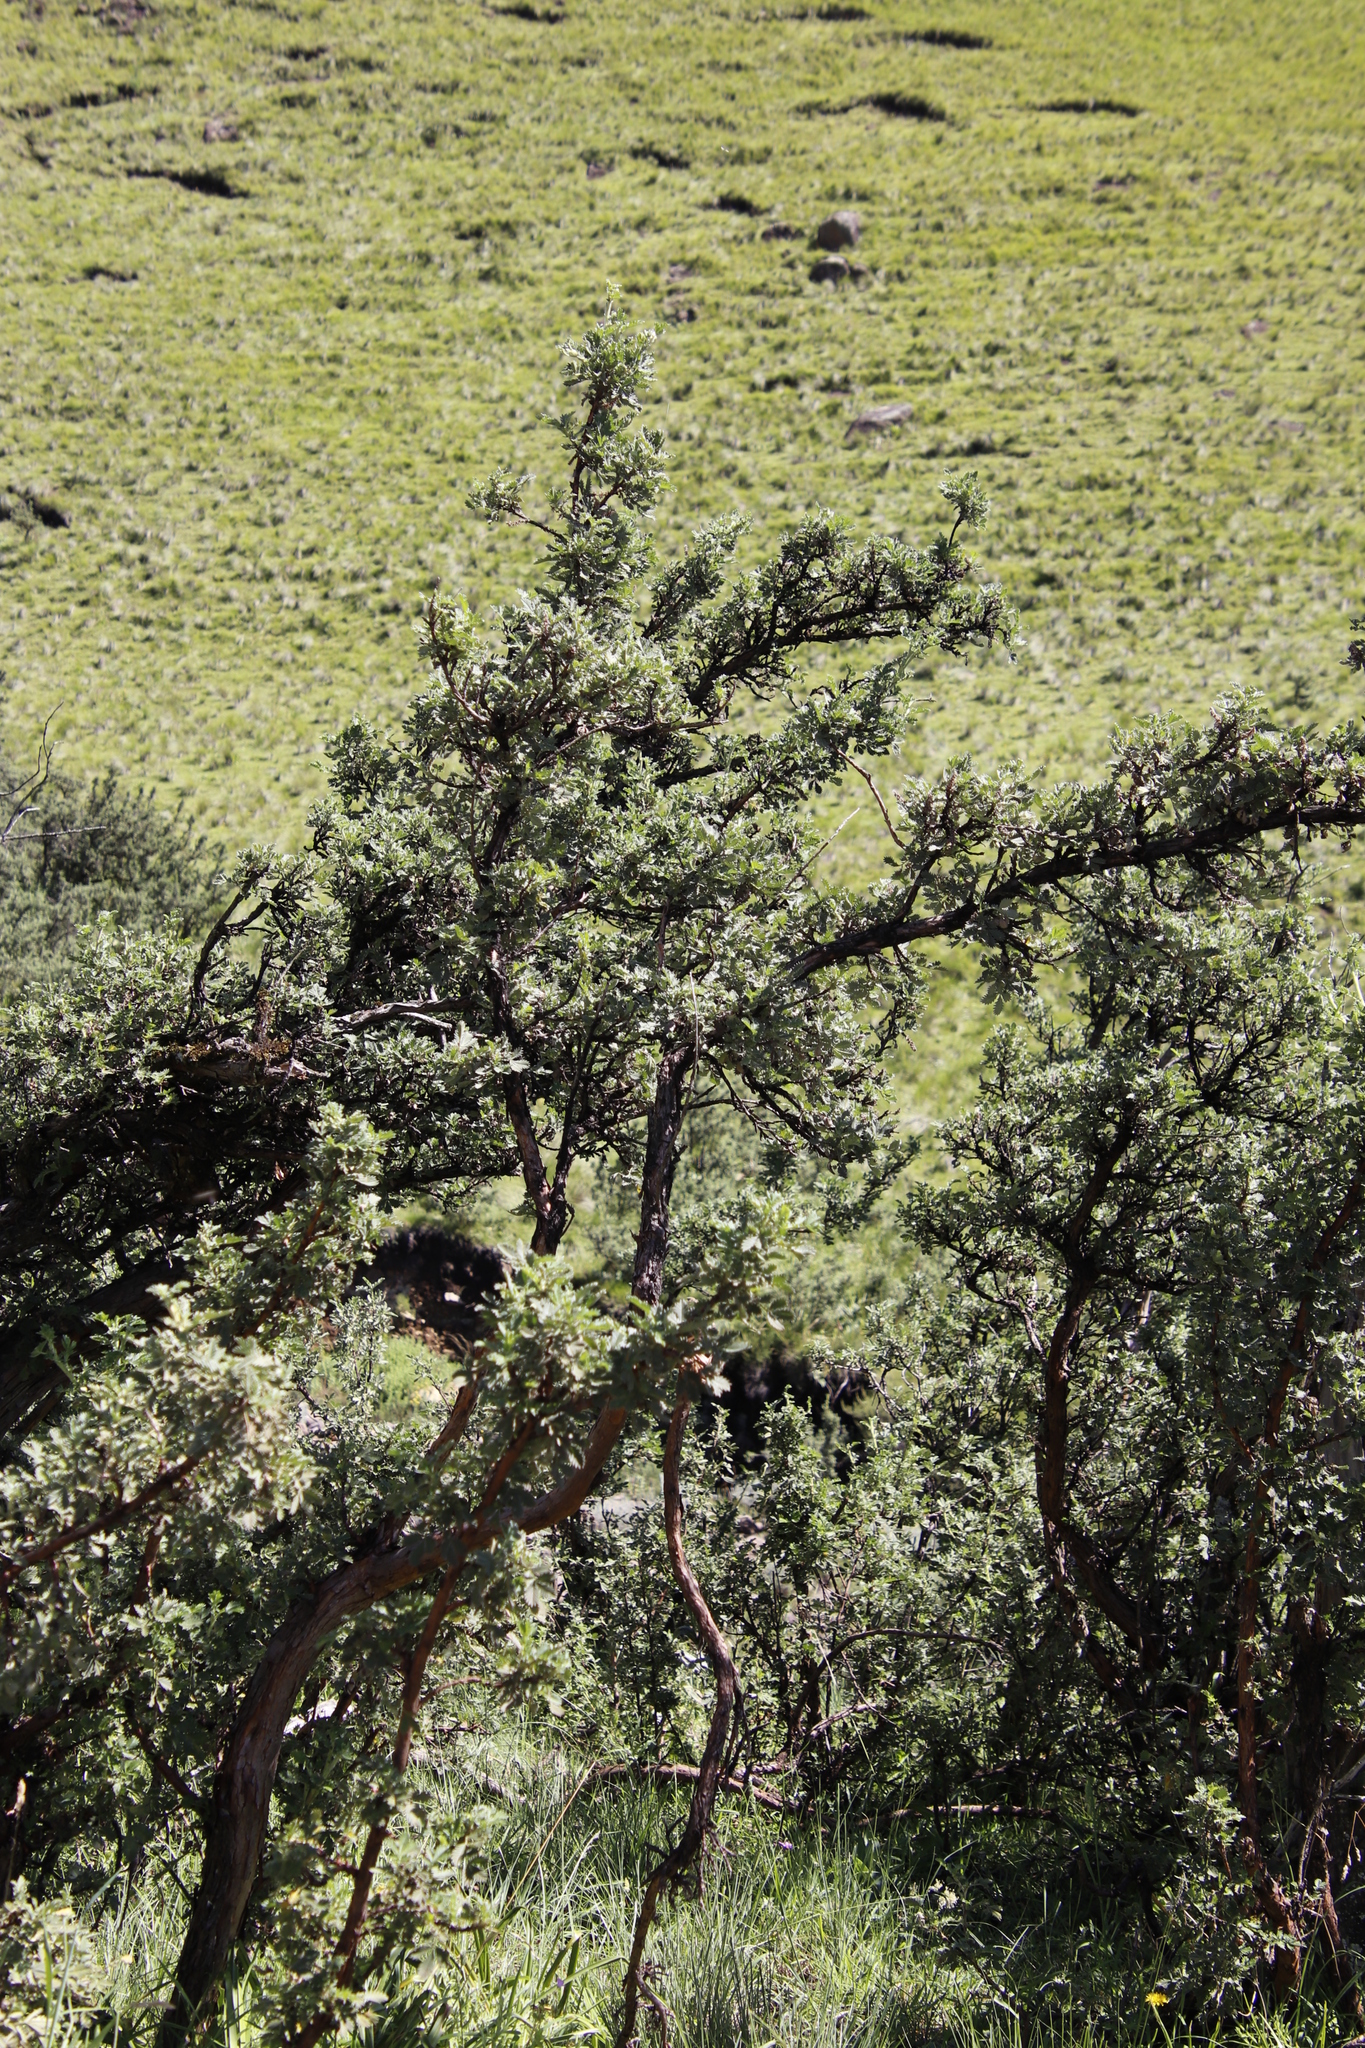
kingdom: Plantae
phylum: Tracheophyta
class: Magnoliopsida
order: Rosales
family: Rosaceae
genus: Leucosidea
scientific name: Leucosidea sericea
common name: Oldwood
